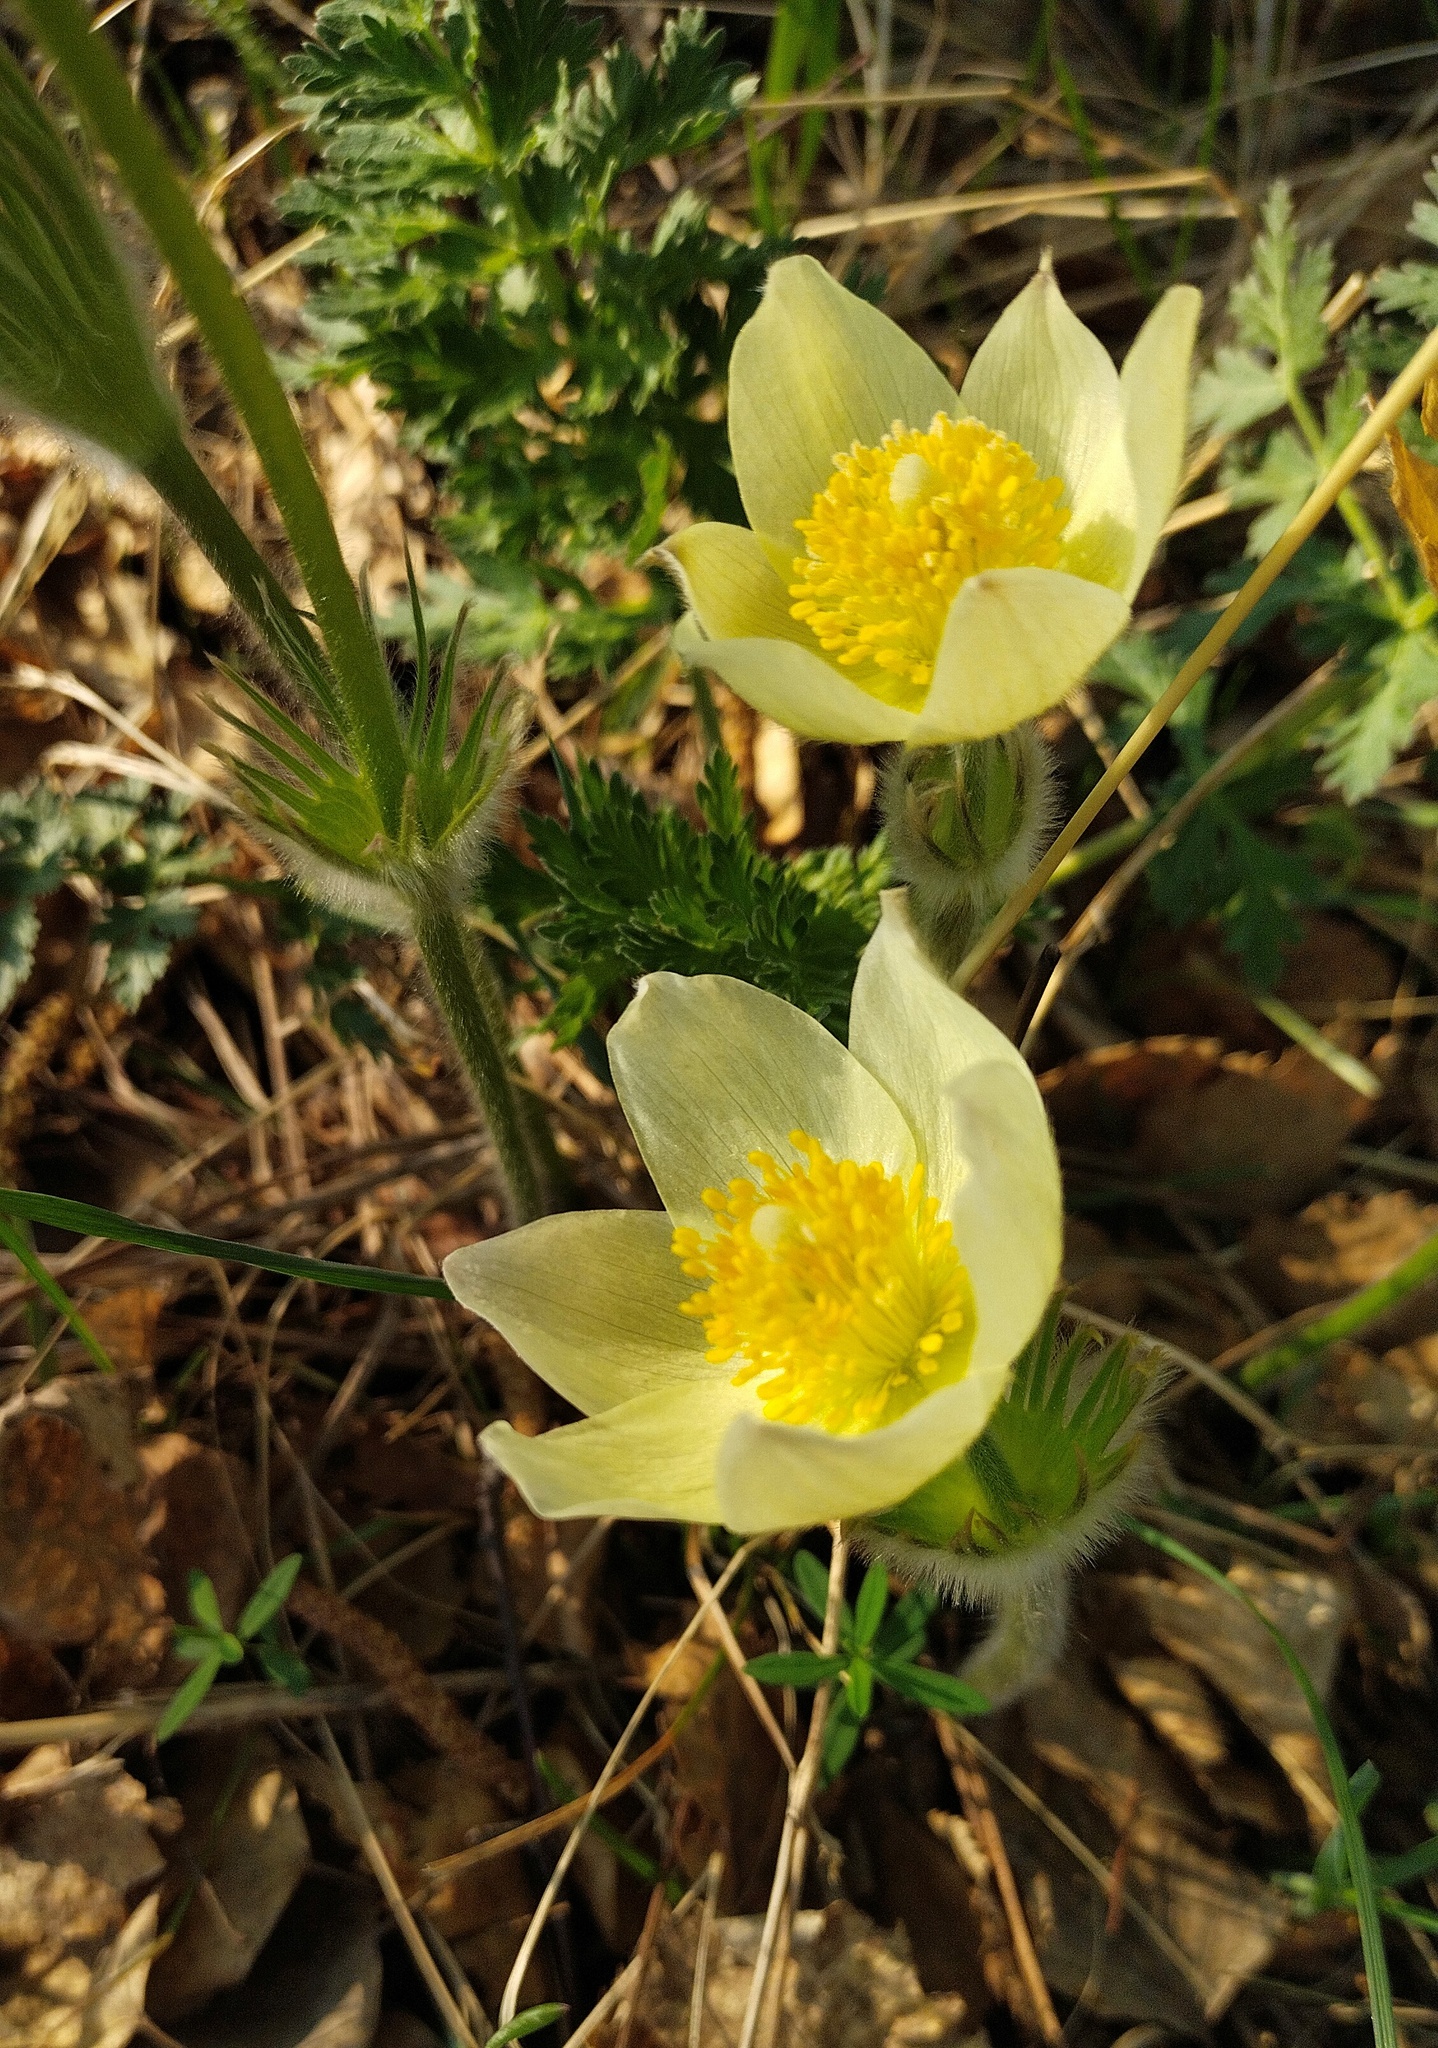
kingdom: Plantae
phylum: Tracheophyta
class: Magnoliopsida
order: Ranunculales
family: Ranunculaceae
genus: Pulsatilla
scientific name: Pulsatilla patens
